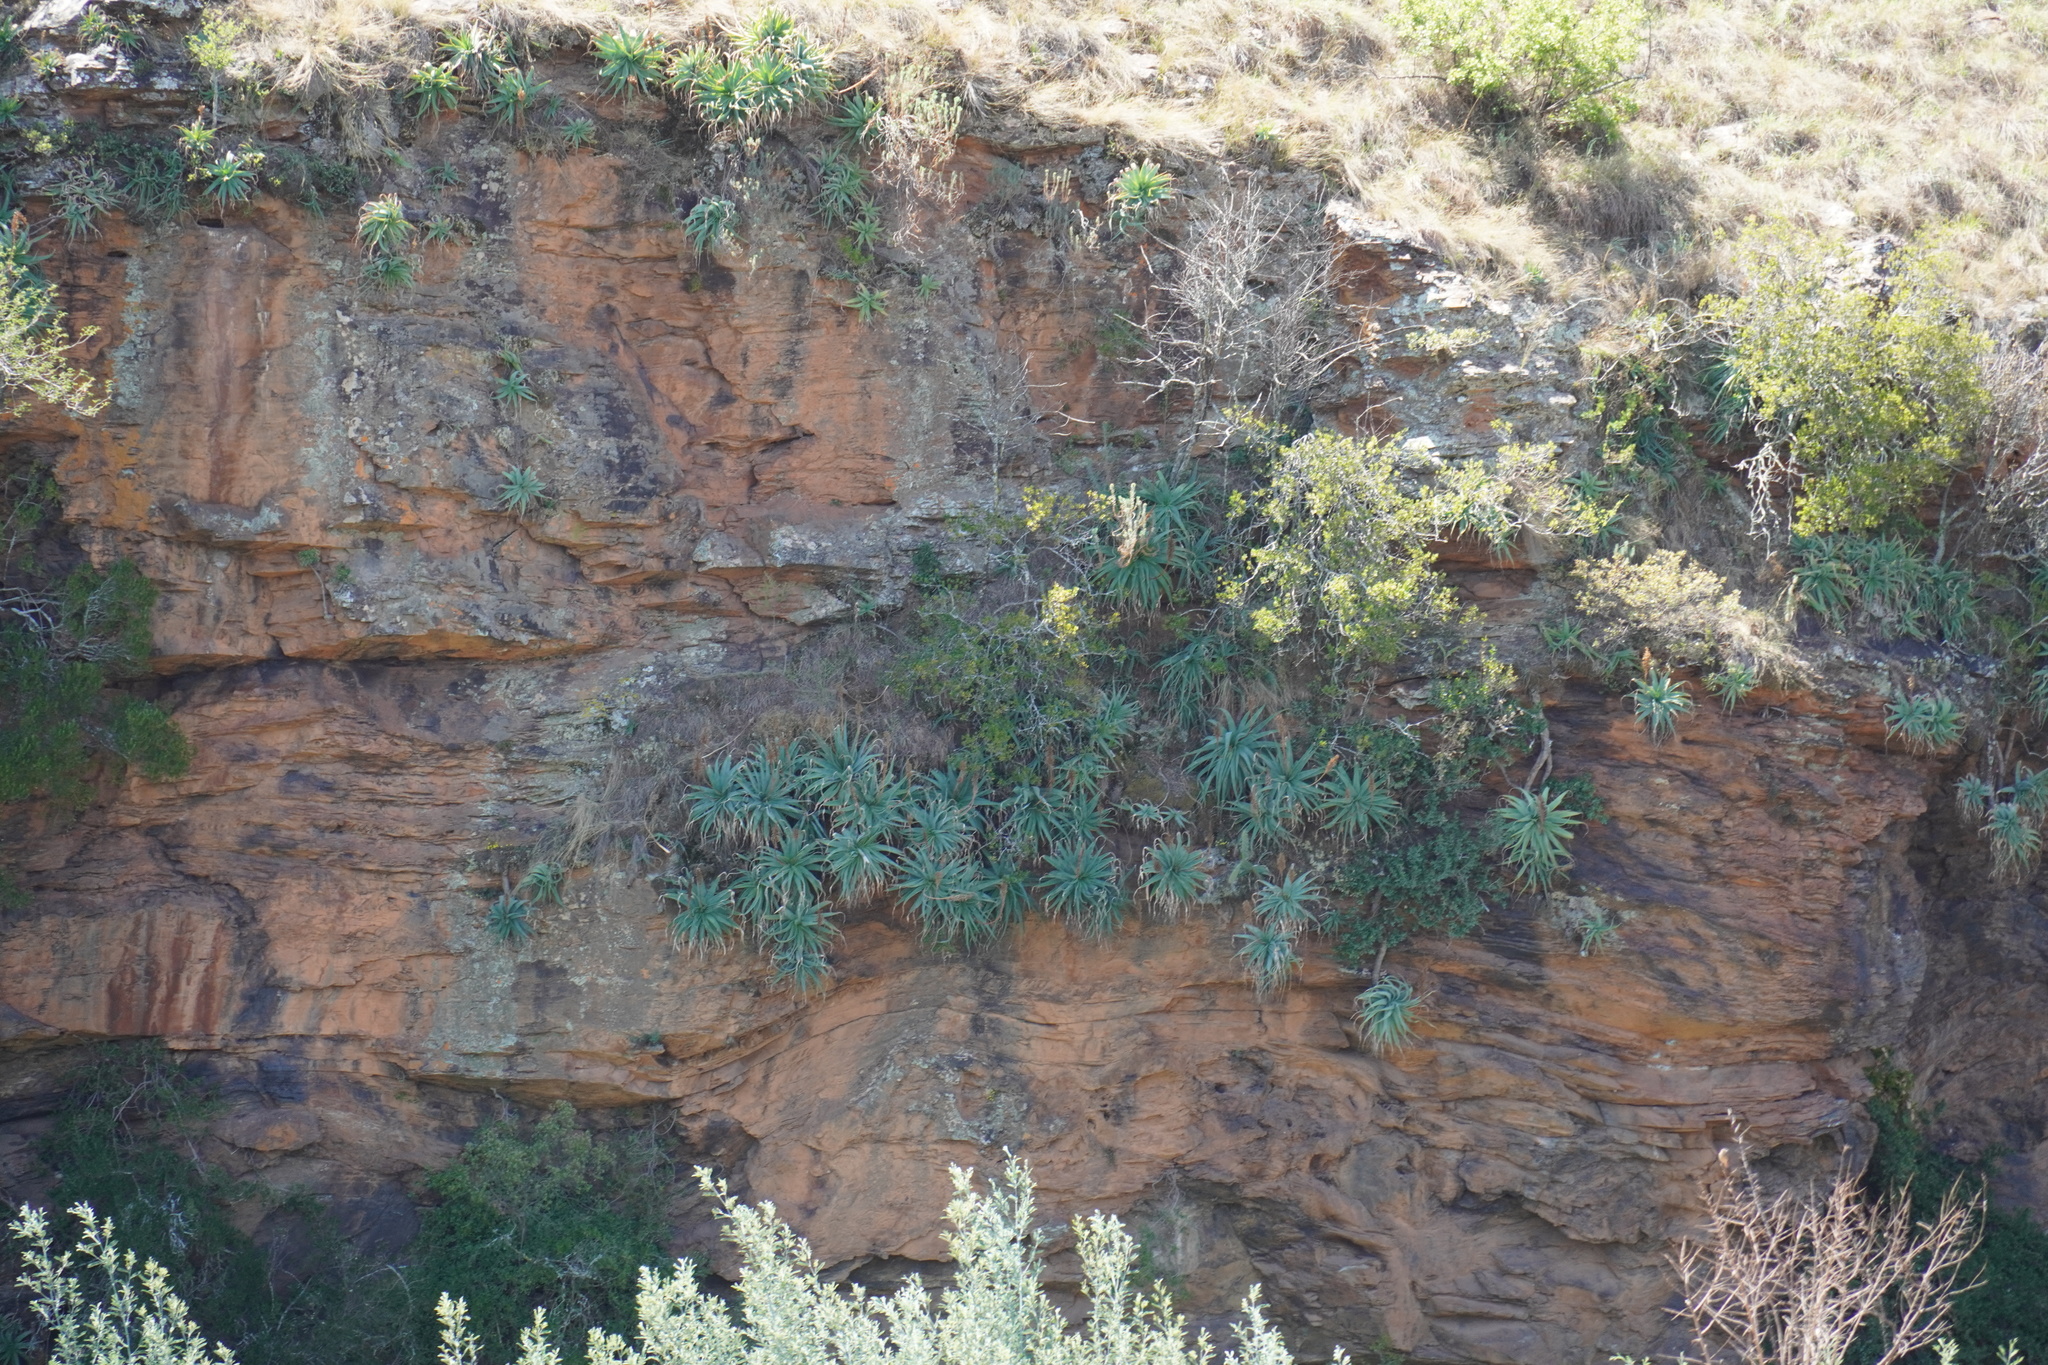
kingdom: Plantae
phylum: Tracheophyta
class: Liliopsida
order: Asparagales
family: Asphodelaceae
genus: Aloe
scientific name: Aloe mutabilis
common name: Blue krantz aloe
